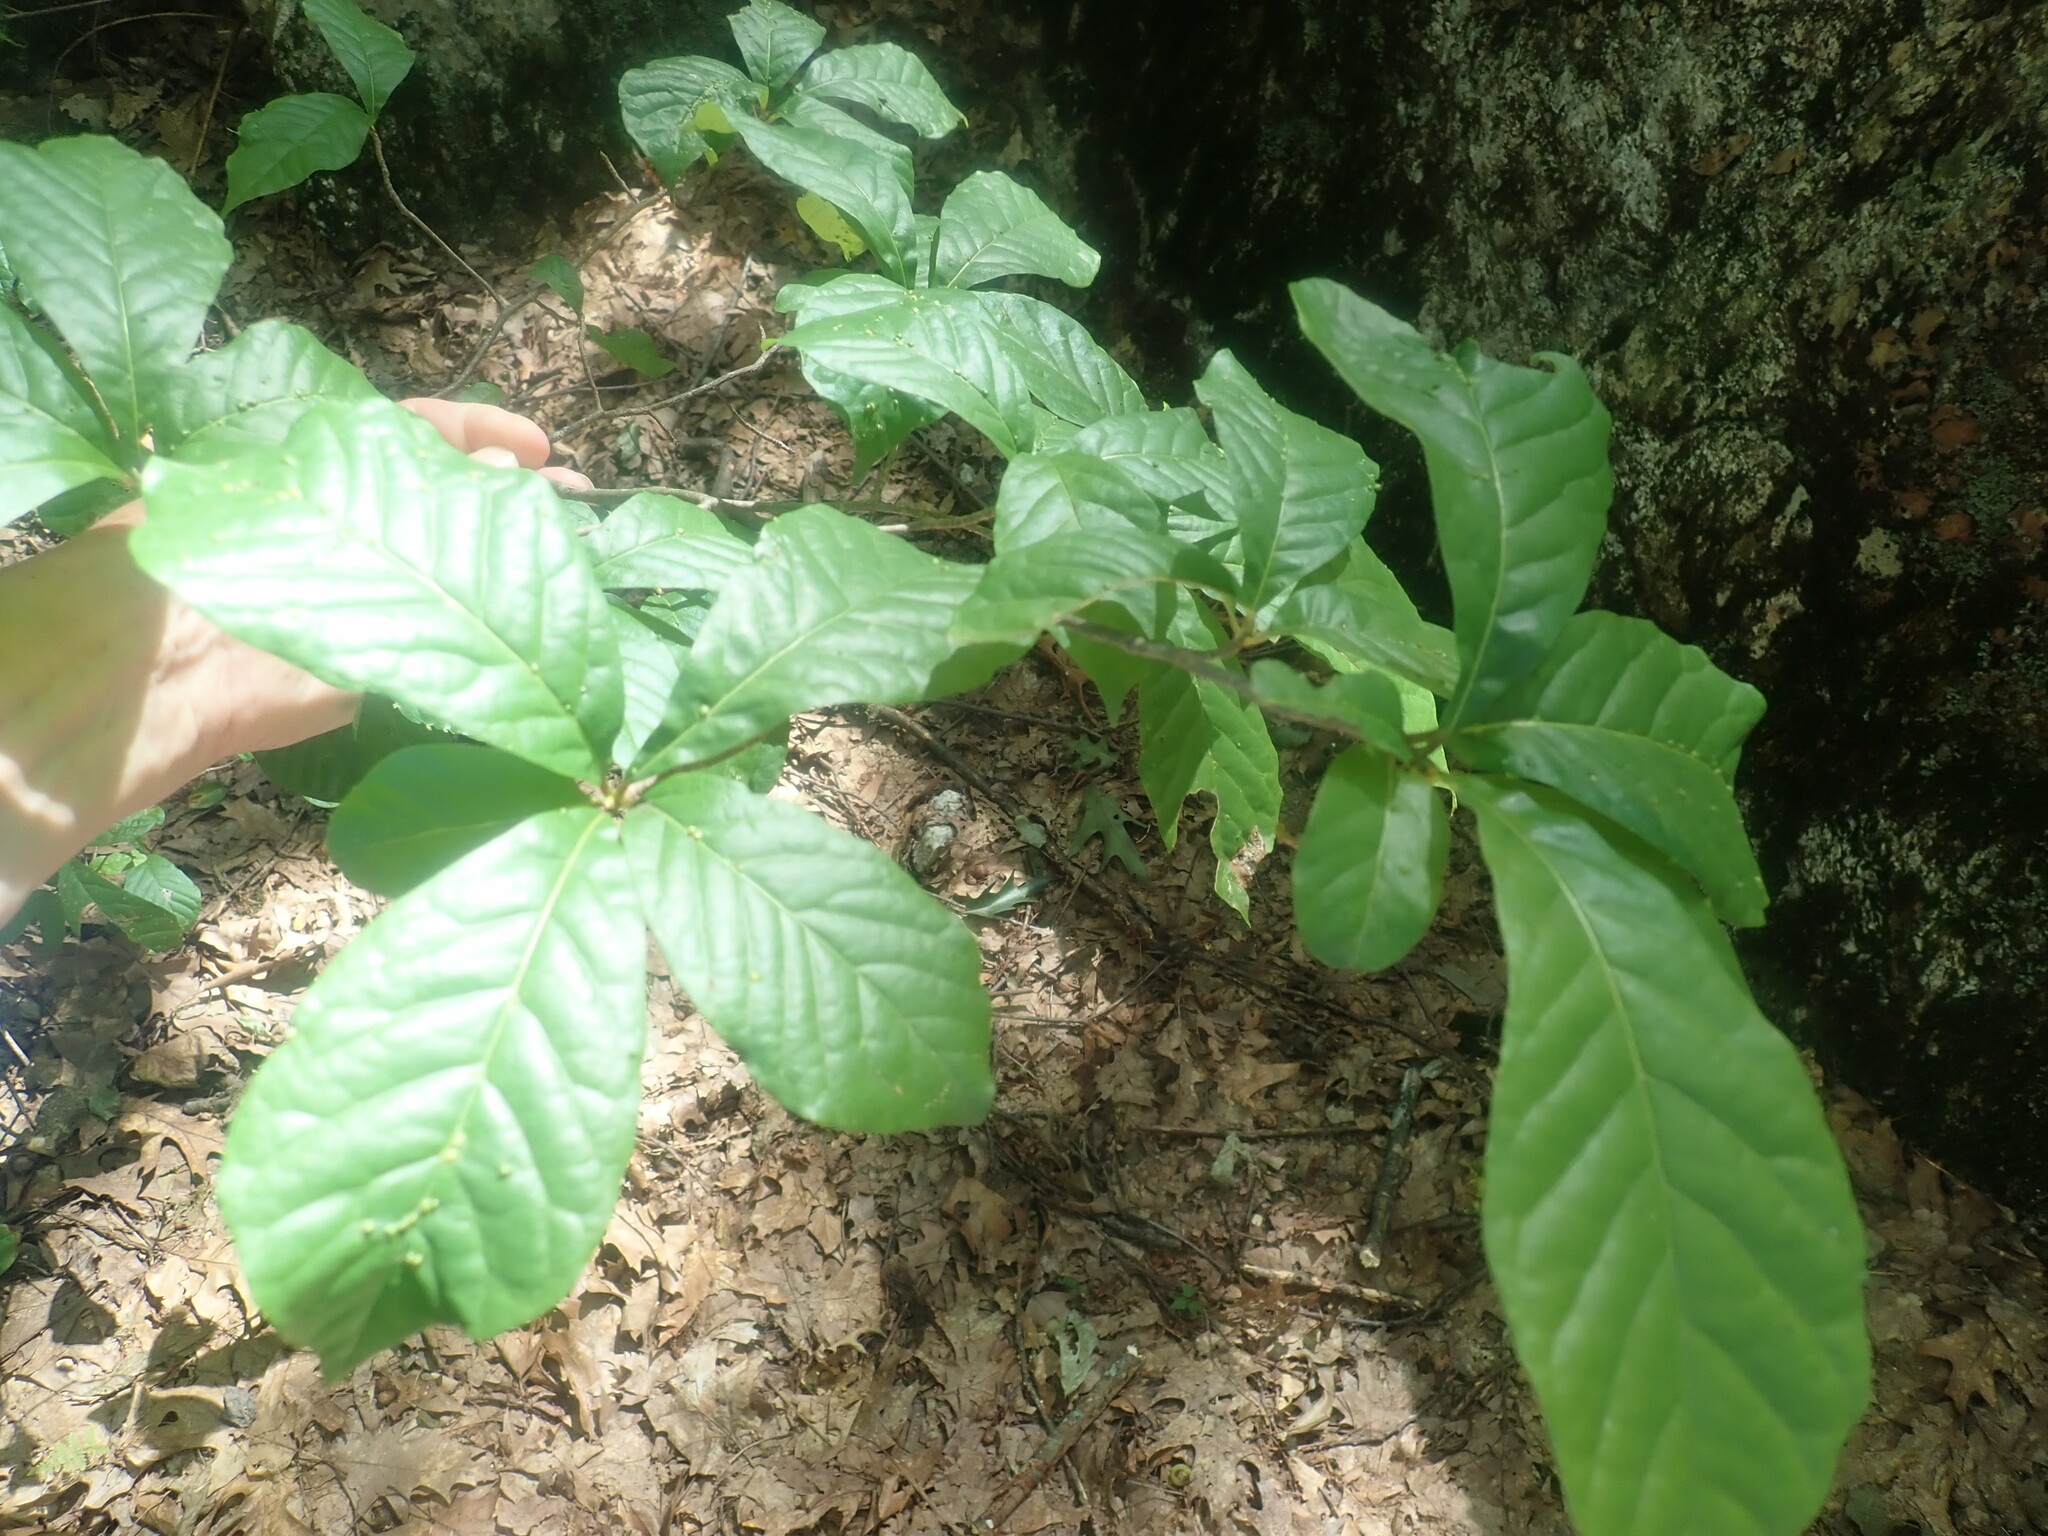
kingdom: Plantae
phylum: Tracheophyta
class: Magnoliopsida
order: Cornales
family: Nyssaceae
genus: Nyssa
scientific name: Nyssa sylvatica
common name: Black tupelo
